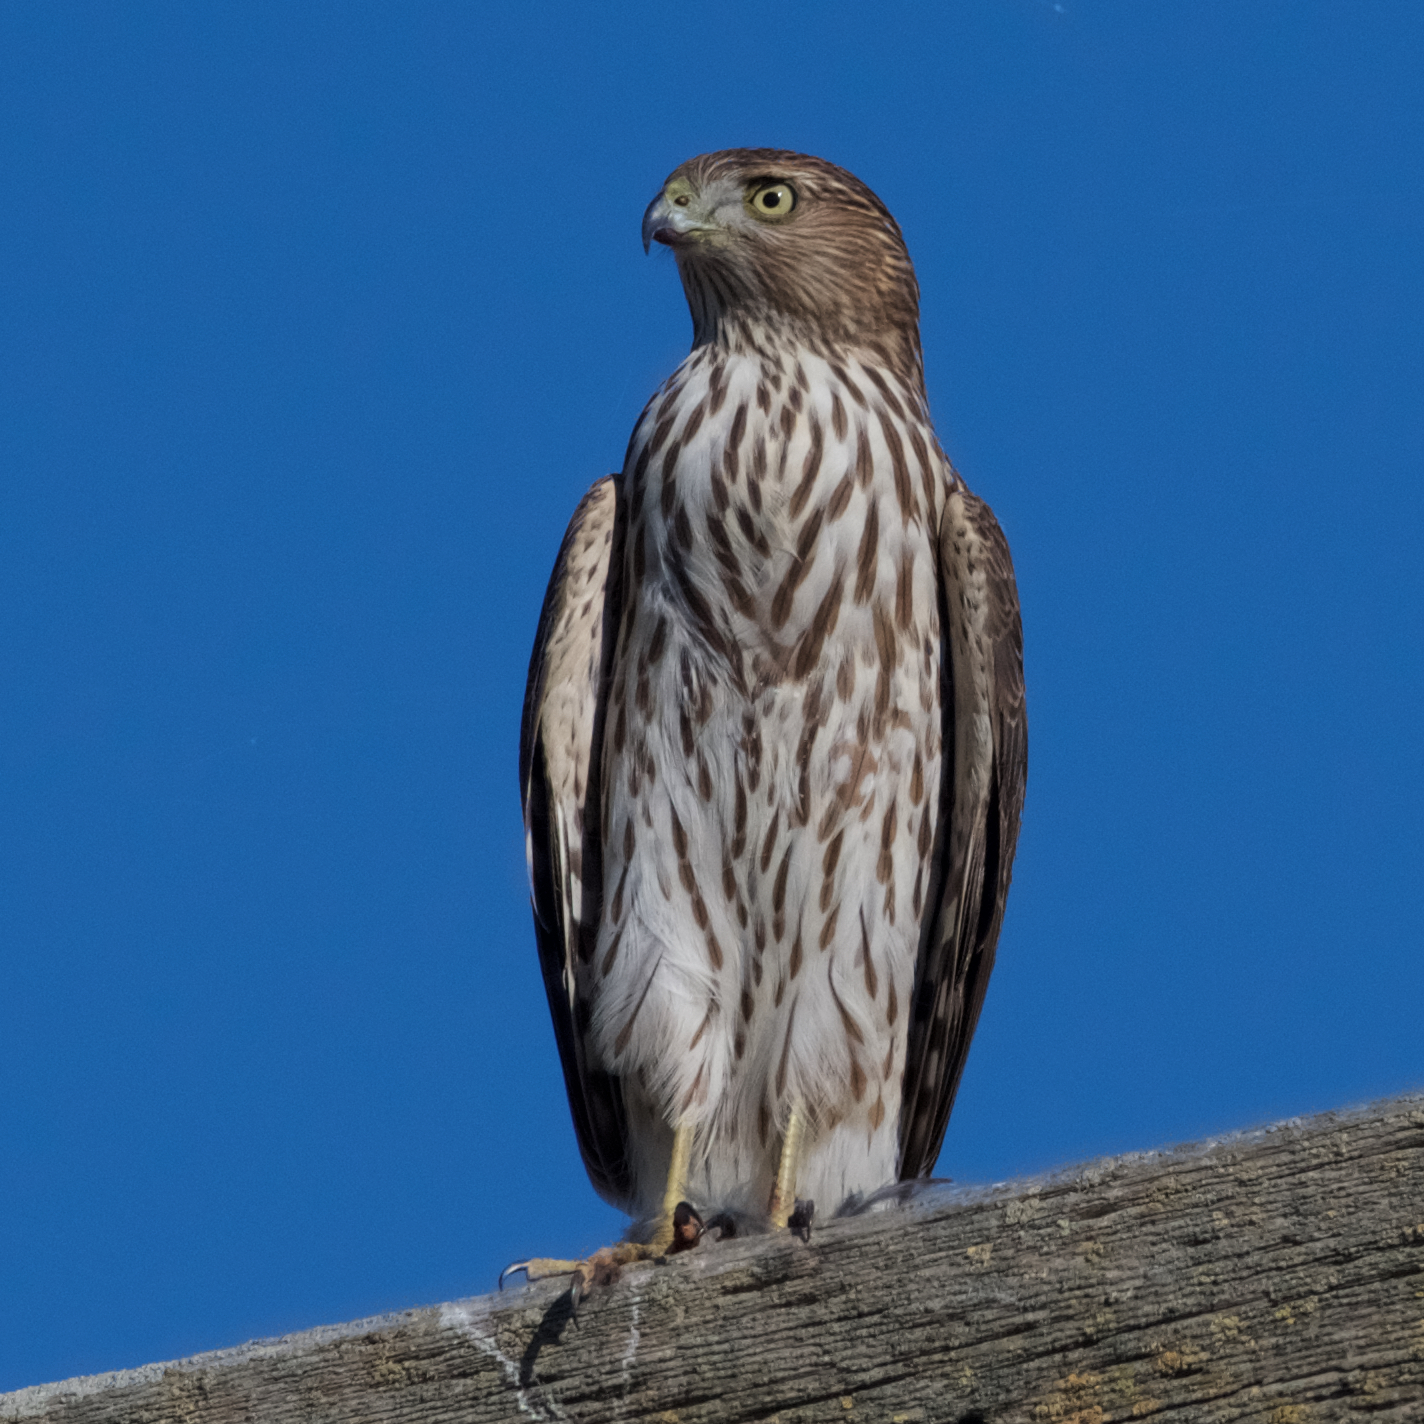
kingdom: Animalia
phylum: Chordata
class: Aves
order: Accipitriformes
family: Accipitridae
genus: Accipiter
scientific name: Accipiter cooperii
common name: Cooper's hawk
